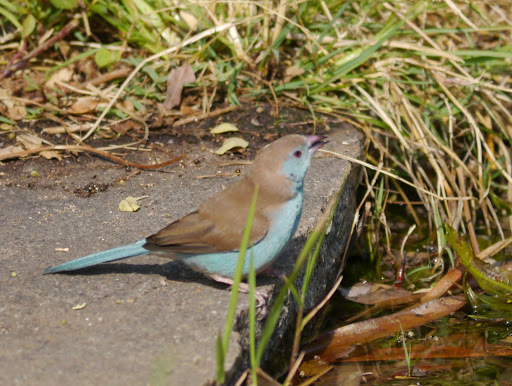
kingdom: Animalia
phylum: Chordata
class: Aves
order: Passeriformes
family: Estrildidae
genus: Uraeginthus
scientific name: Uraeginthus angolensis
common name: Blue waxbill
